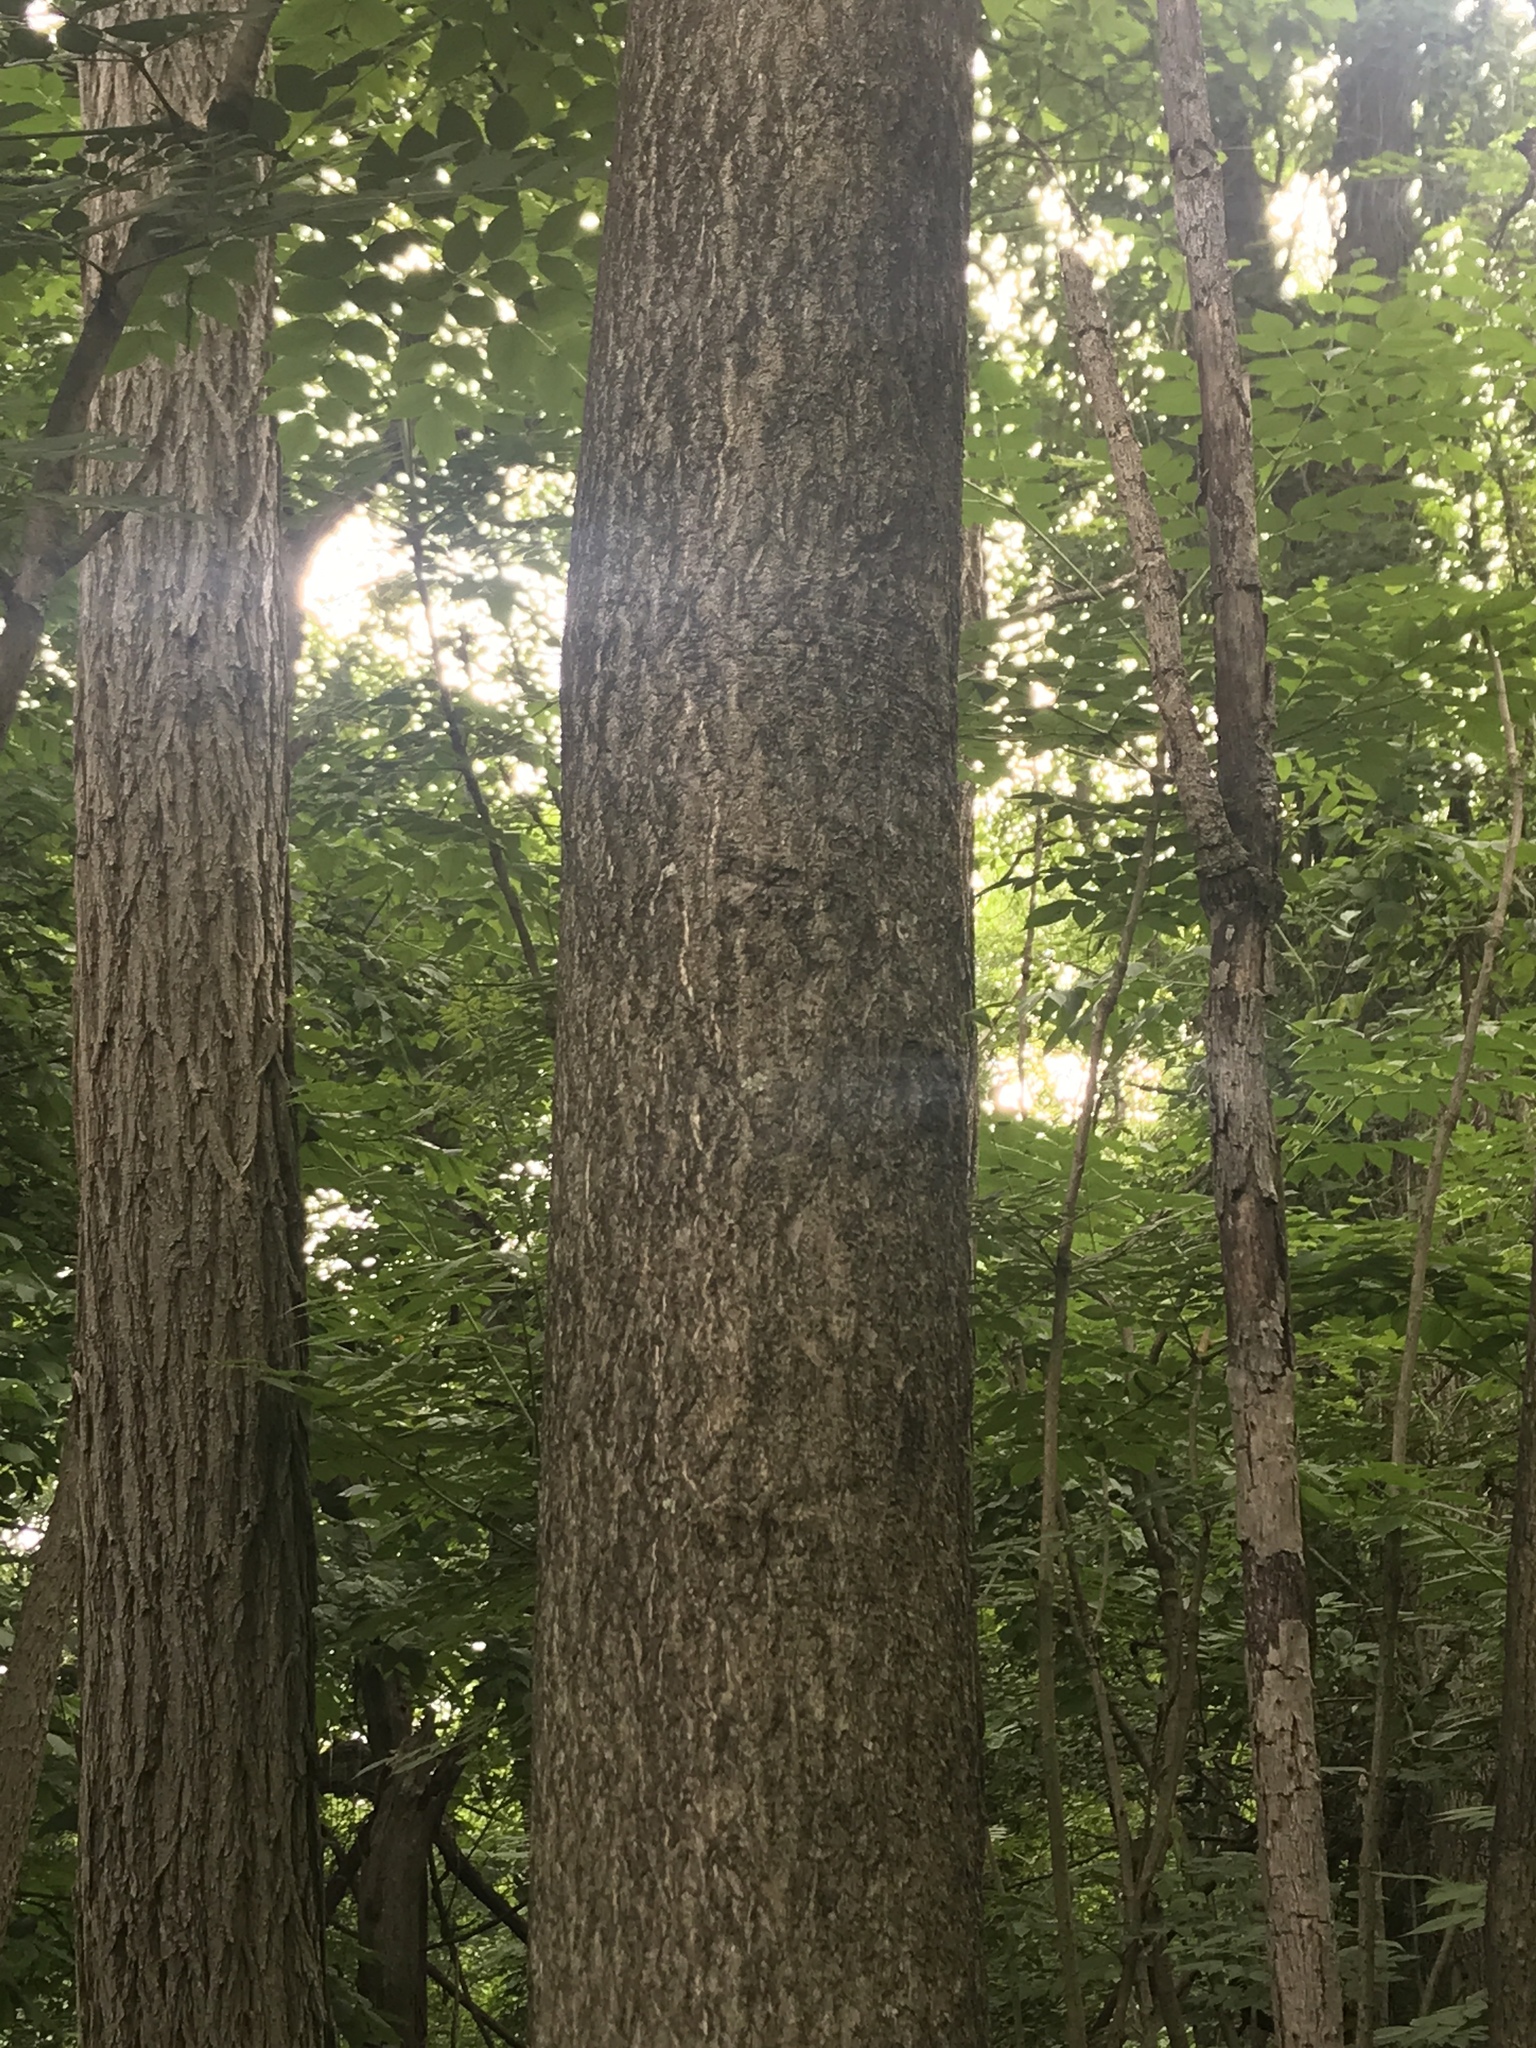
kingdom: Plantae
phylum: Tracheophyta
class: Magnoliopsida
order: Sapindales
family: Simaroubaceae
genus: Ailanthus
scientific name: Ailanthus altissima
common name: Tree-of-heaven
